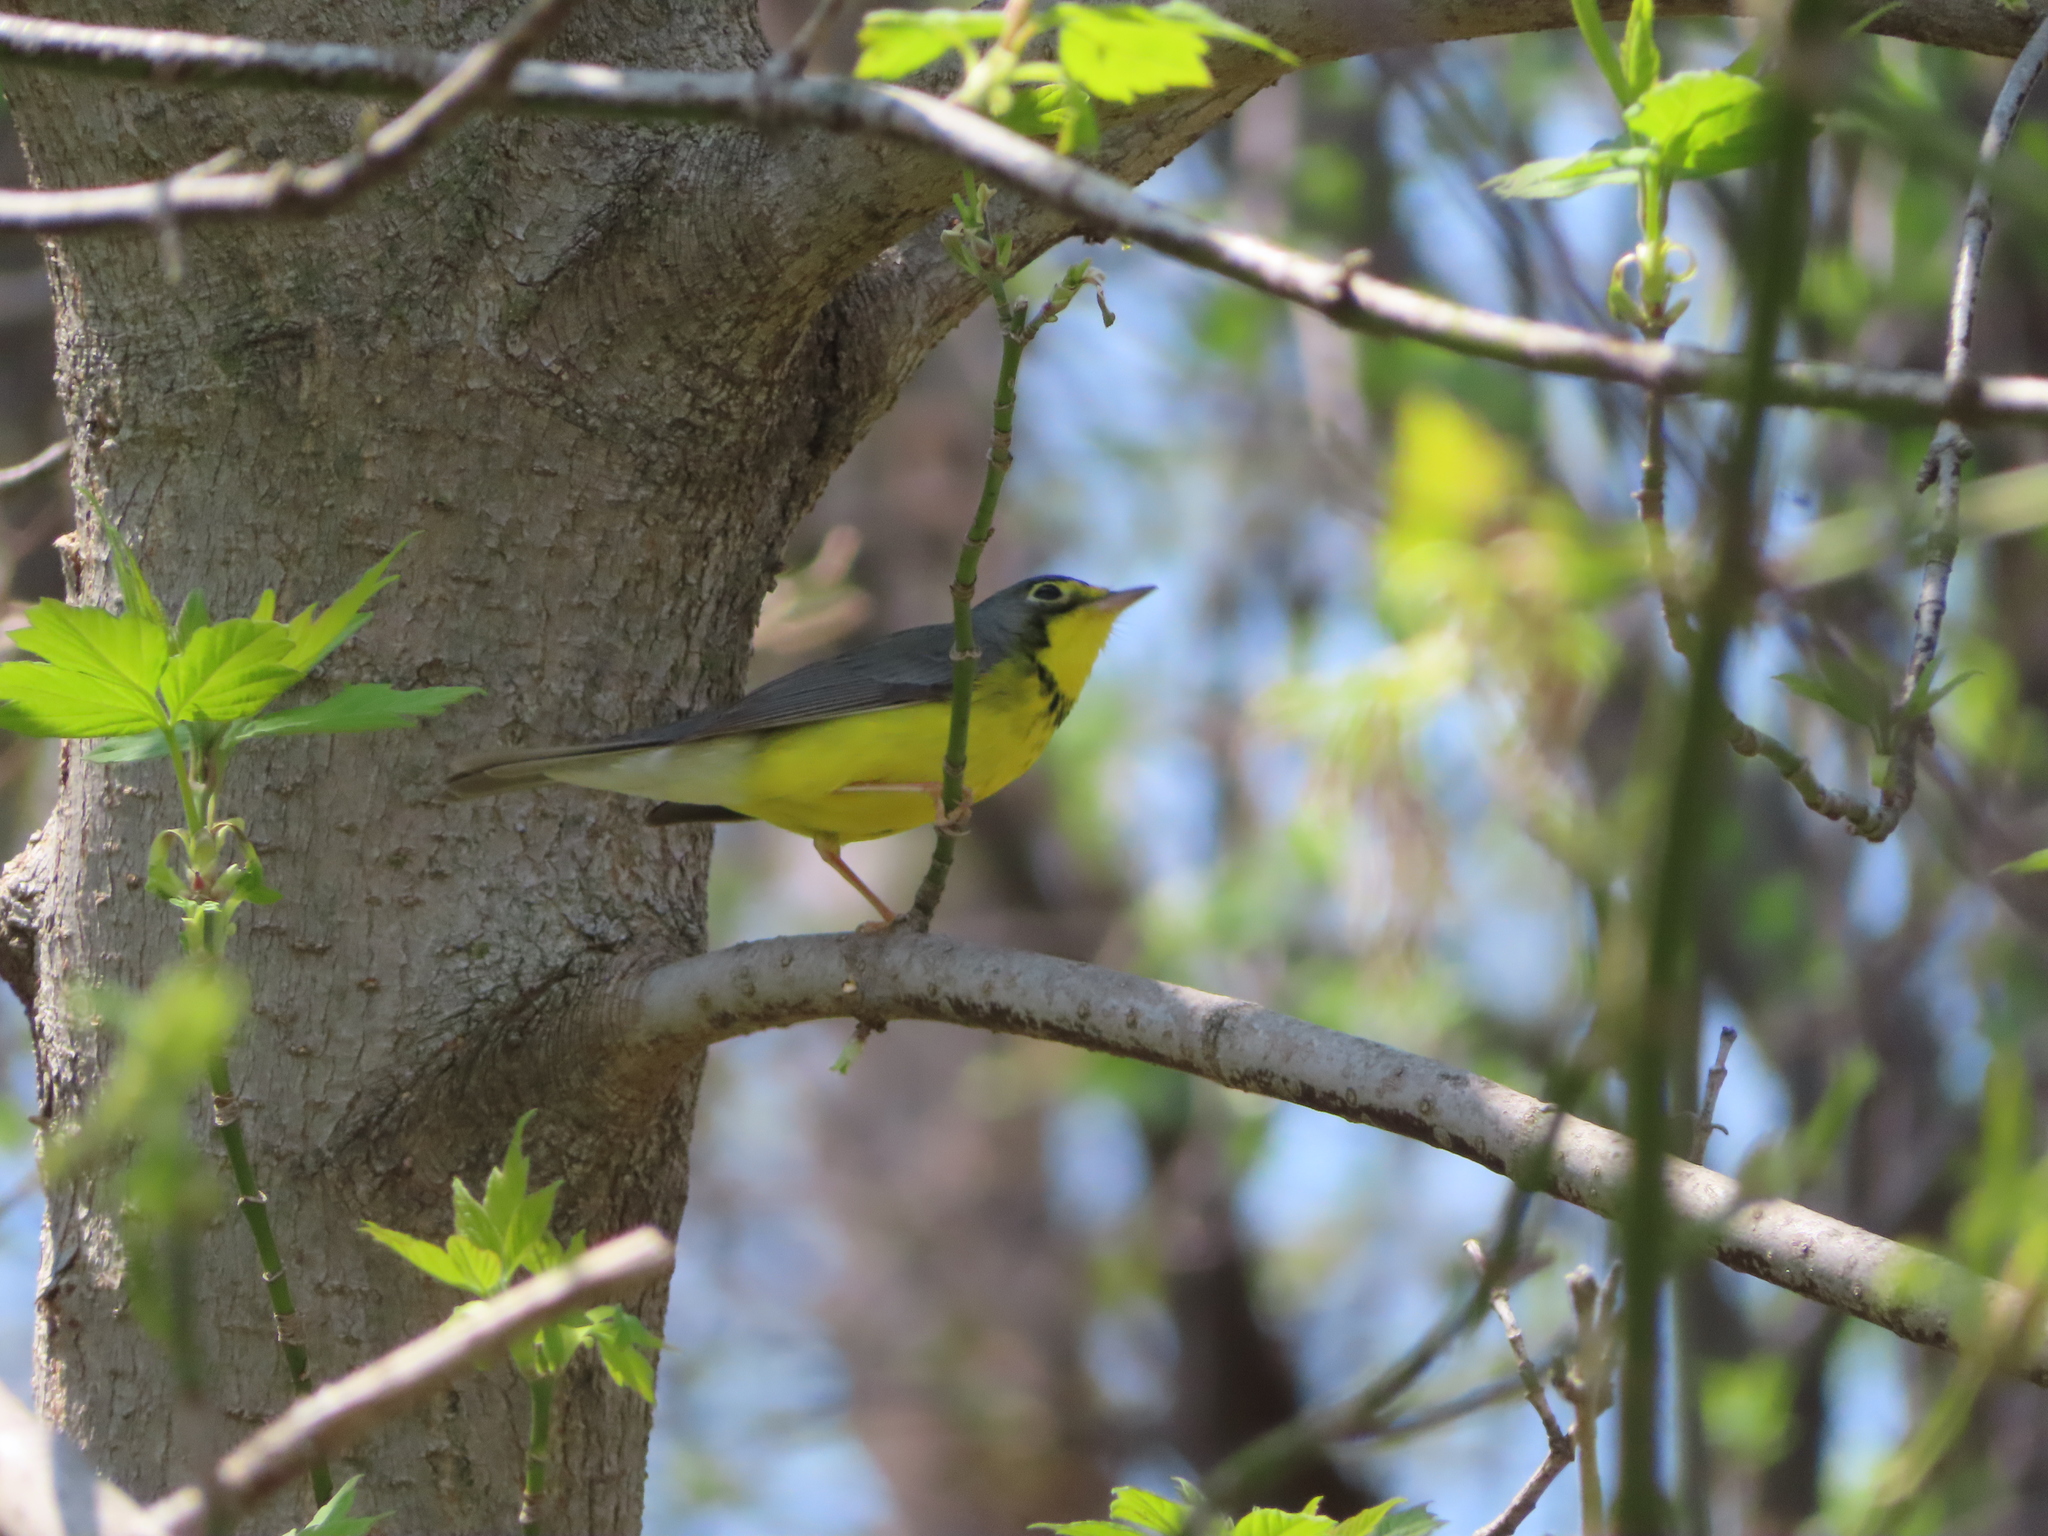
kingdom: Animalia
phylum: Chordata
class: Aves
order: Passeriformes
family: Parulidae
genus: Cardellina
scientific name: Cardellina canadensis
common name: Canada warbler
